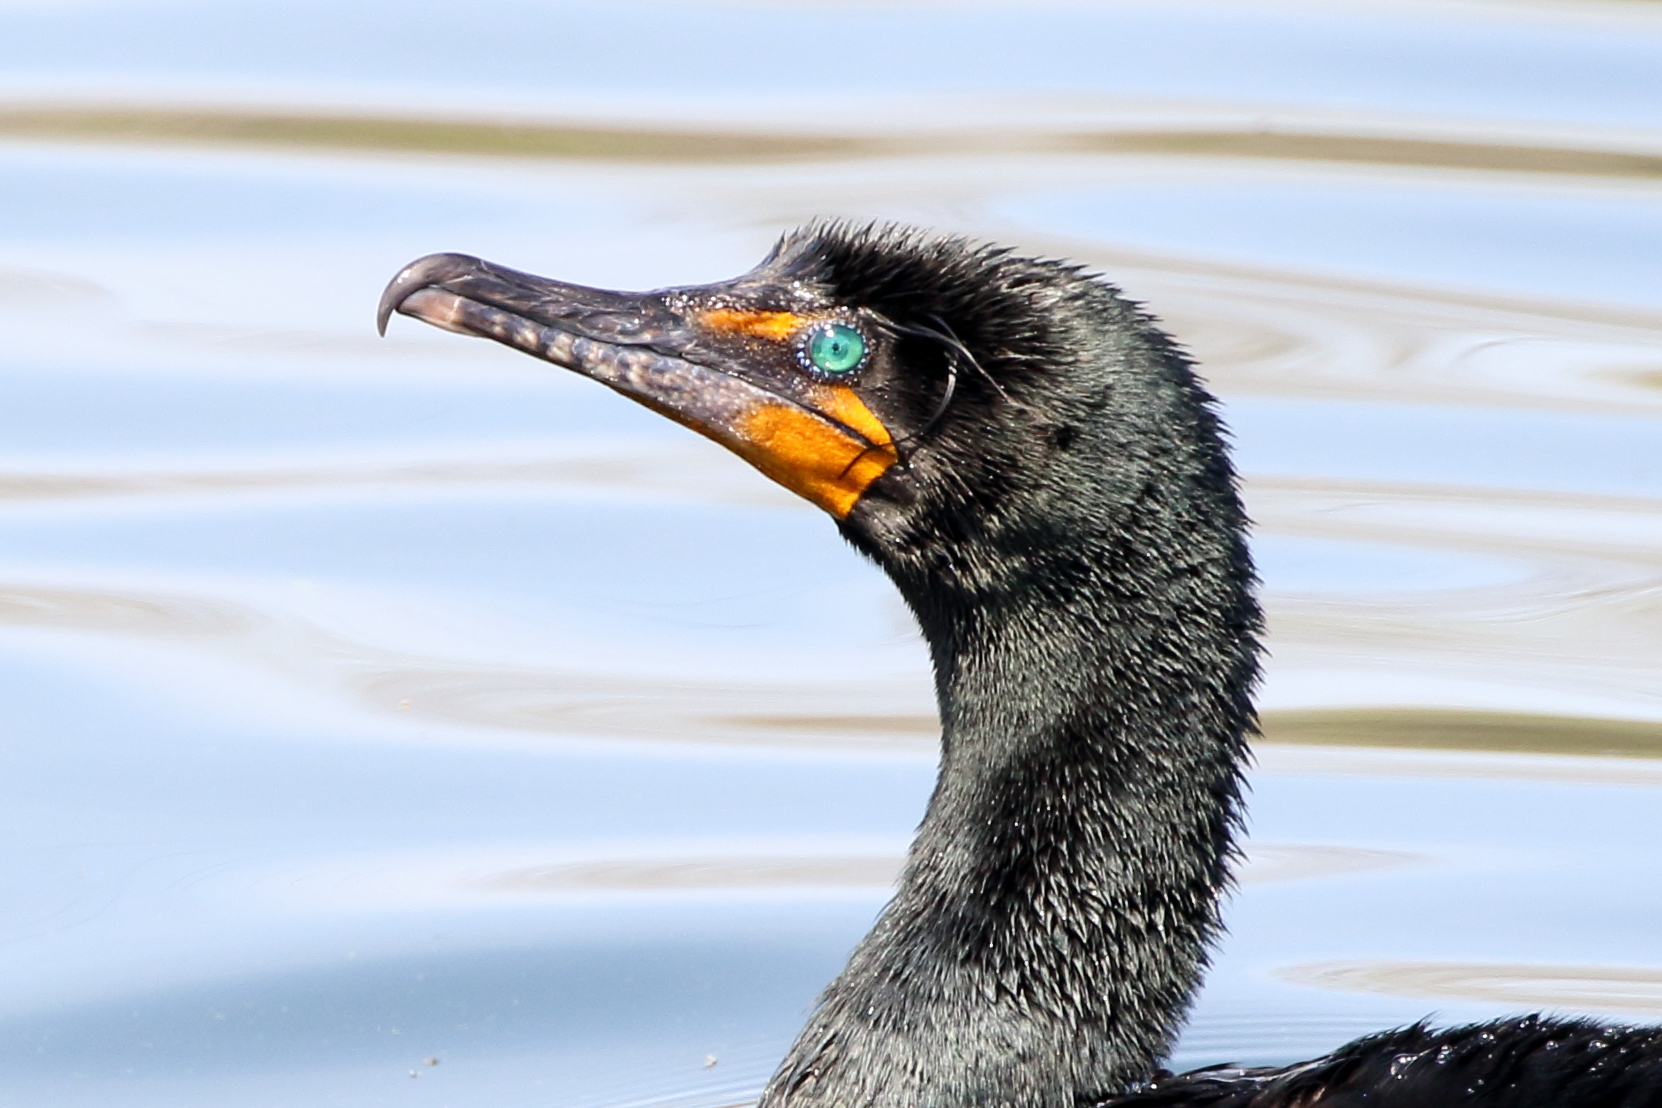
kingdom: Animalia
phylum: Chordata
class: Aves
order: Suliformes
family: Phalacrocoracidae
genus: Phalacrocorax
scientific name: Phalacrocorax auritus
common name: Double-crested cormorant
